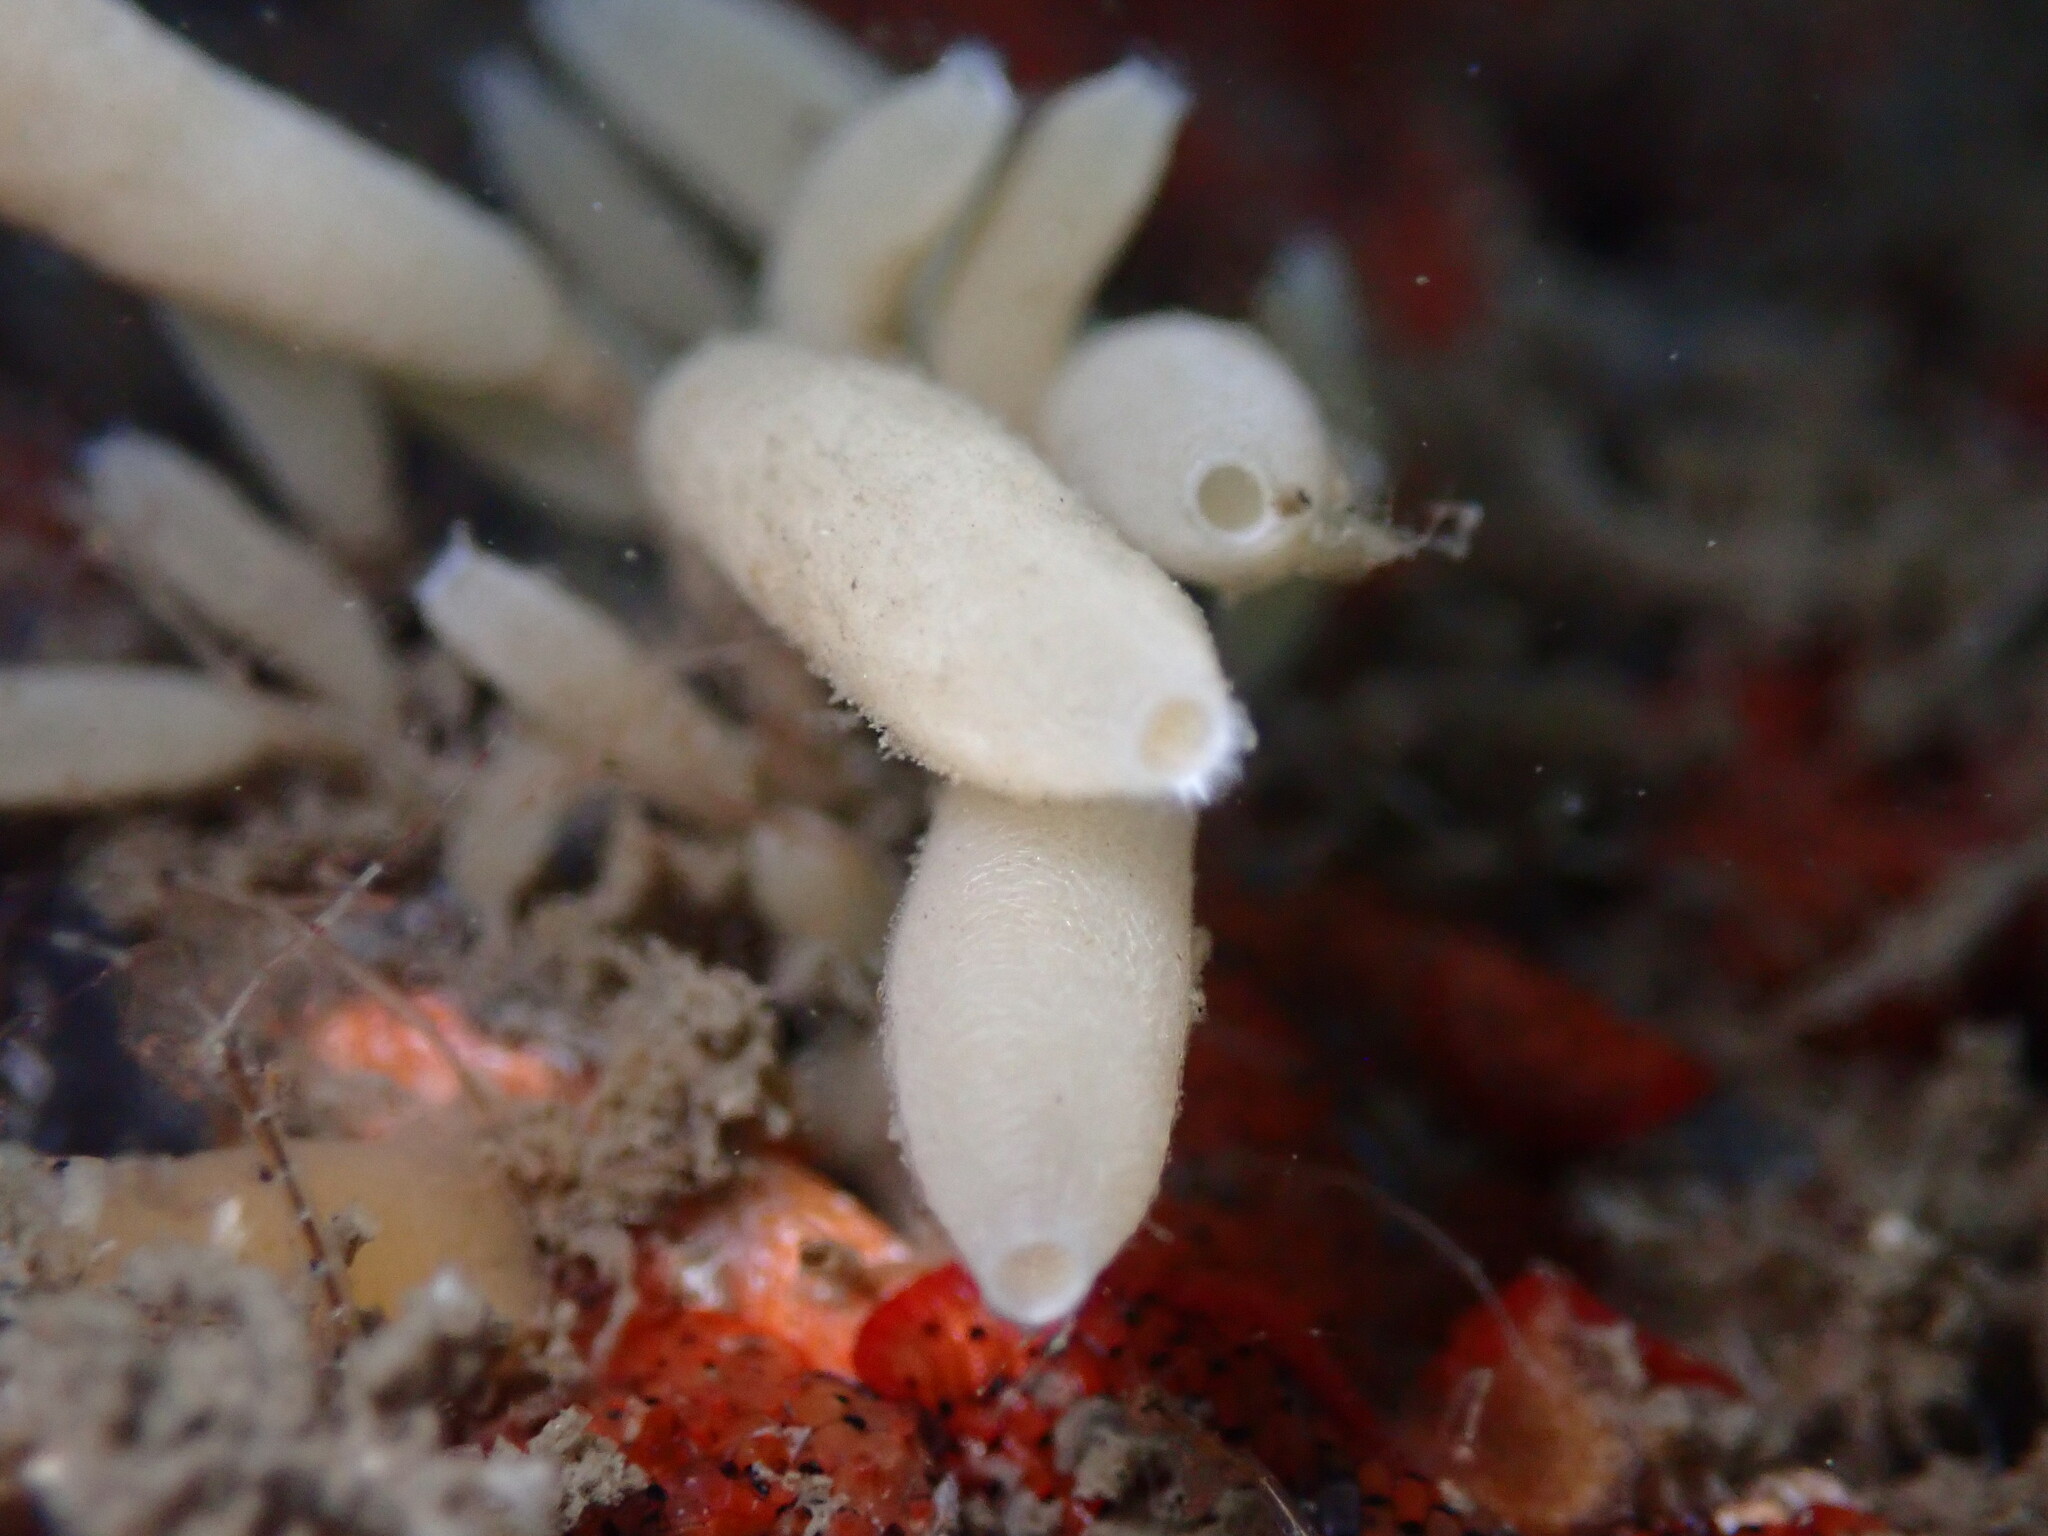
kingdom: Animalia
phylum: Porifera
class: Calcarea
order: Leucosolenida
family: Amphoriscidae
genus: Leucilla
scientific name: Leucilla nuttingi
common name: Nutting's sponge
